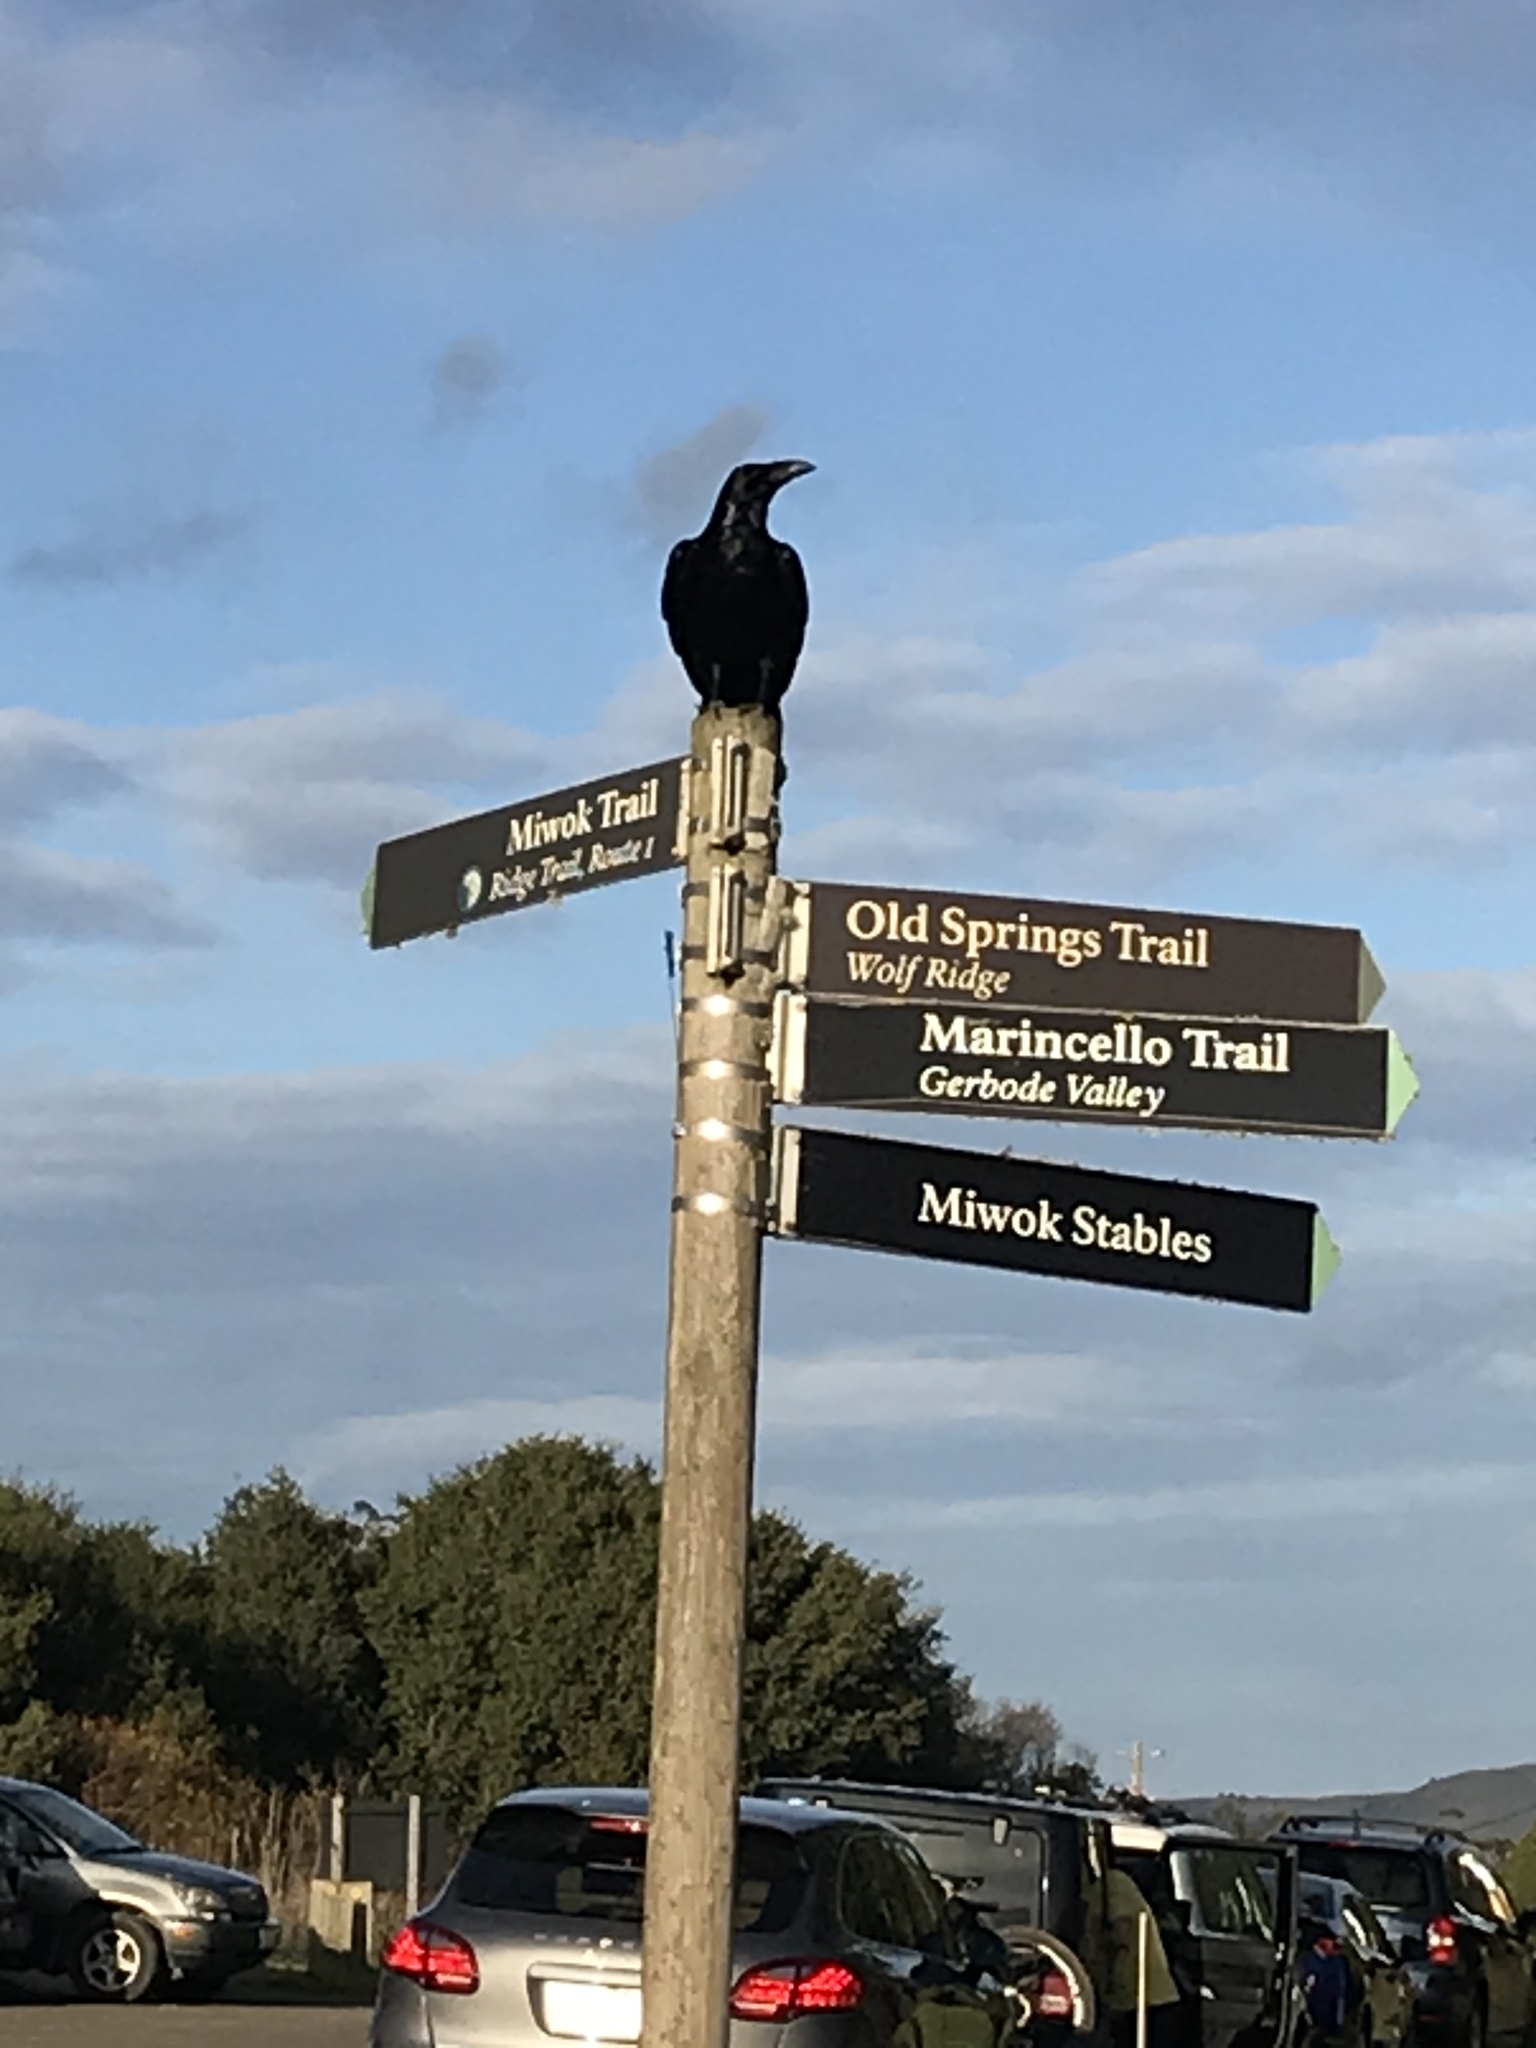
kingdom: Animalia
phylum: Chordata
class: Aves
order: Passeriformes
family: Corvidae
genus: Corvus
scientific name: Corvus corax
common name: Common raven
